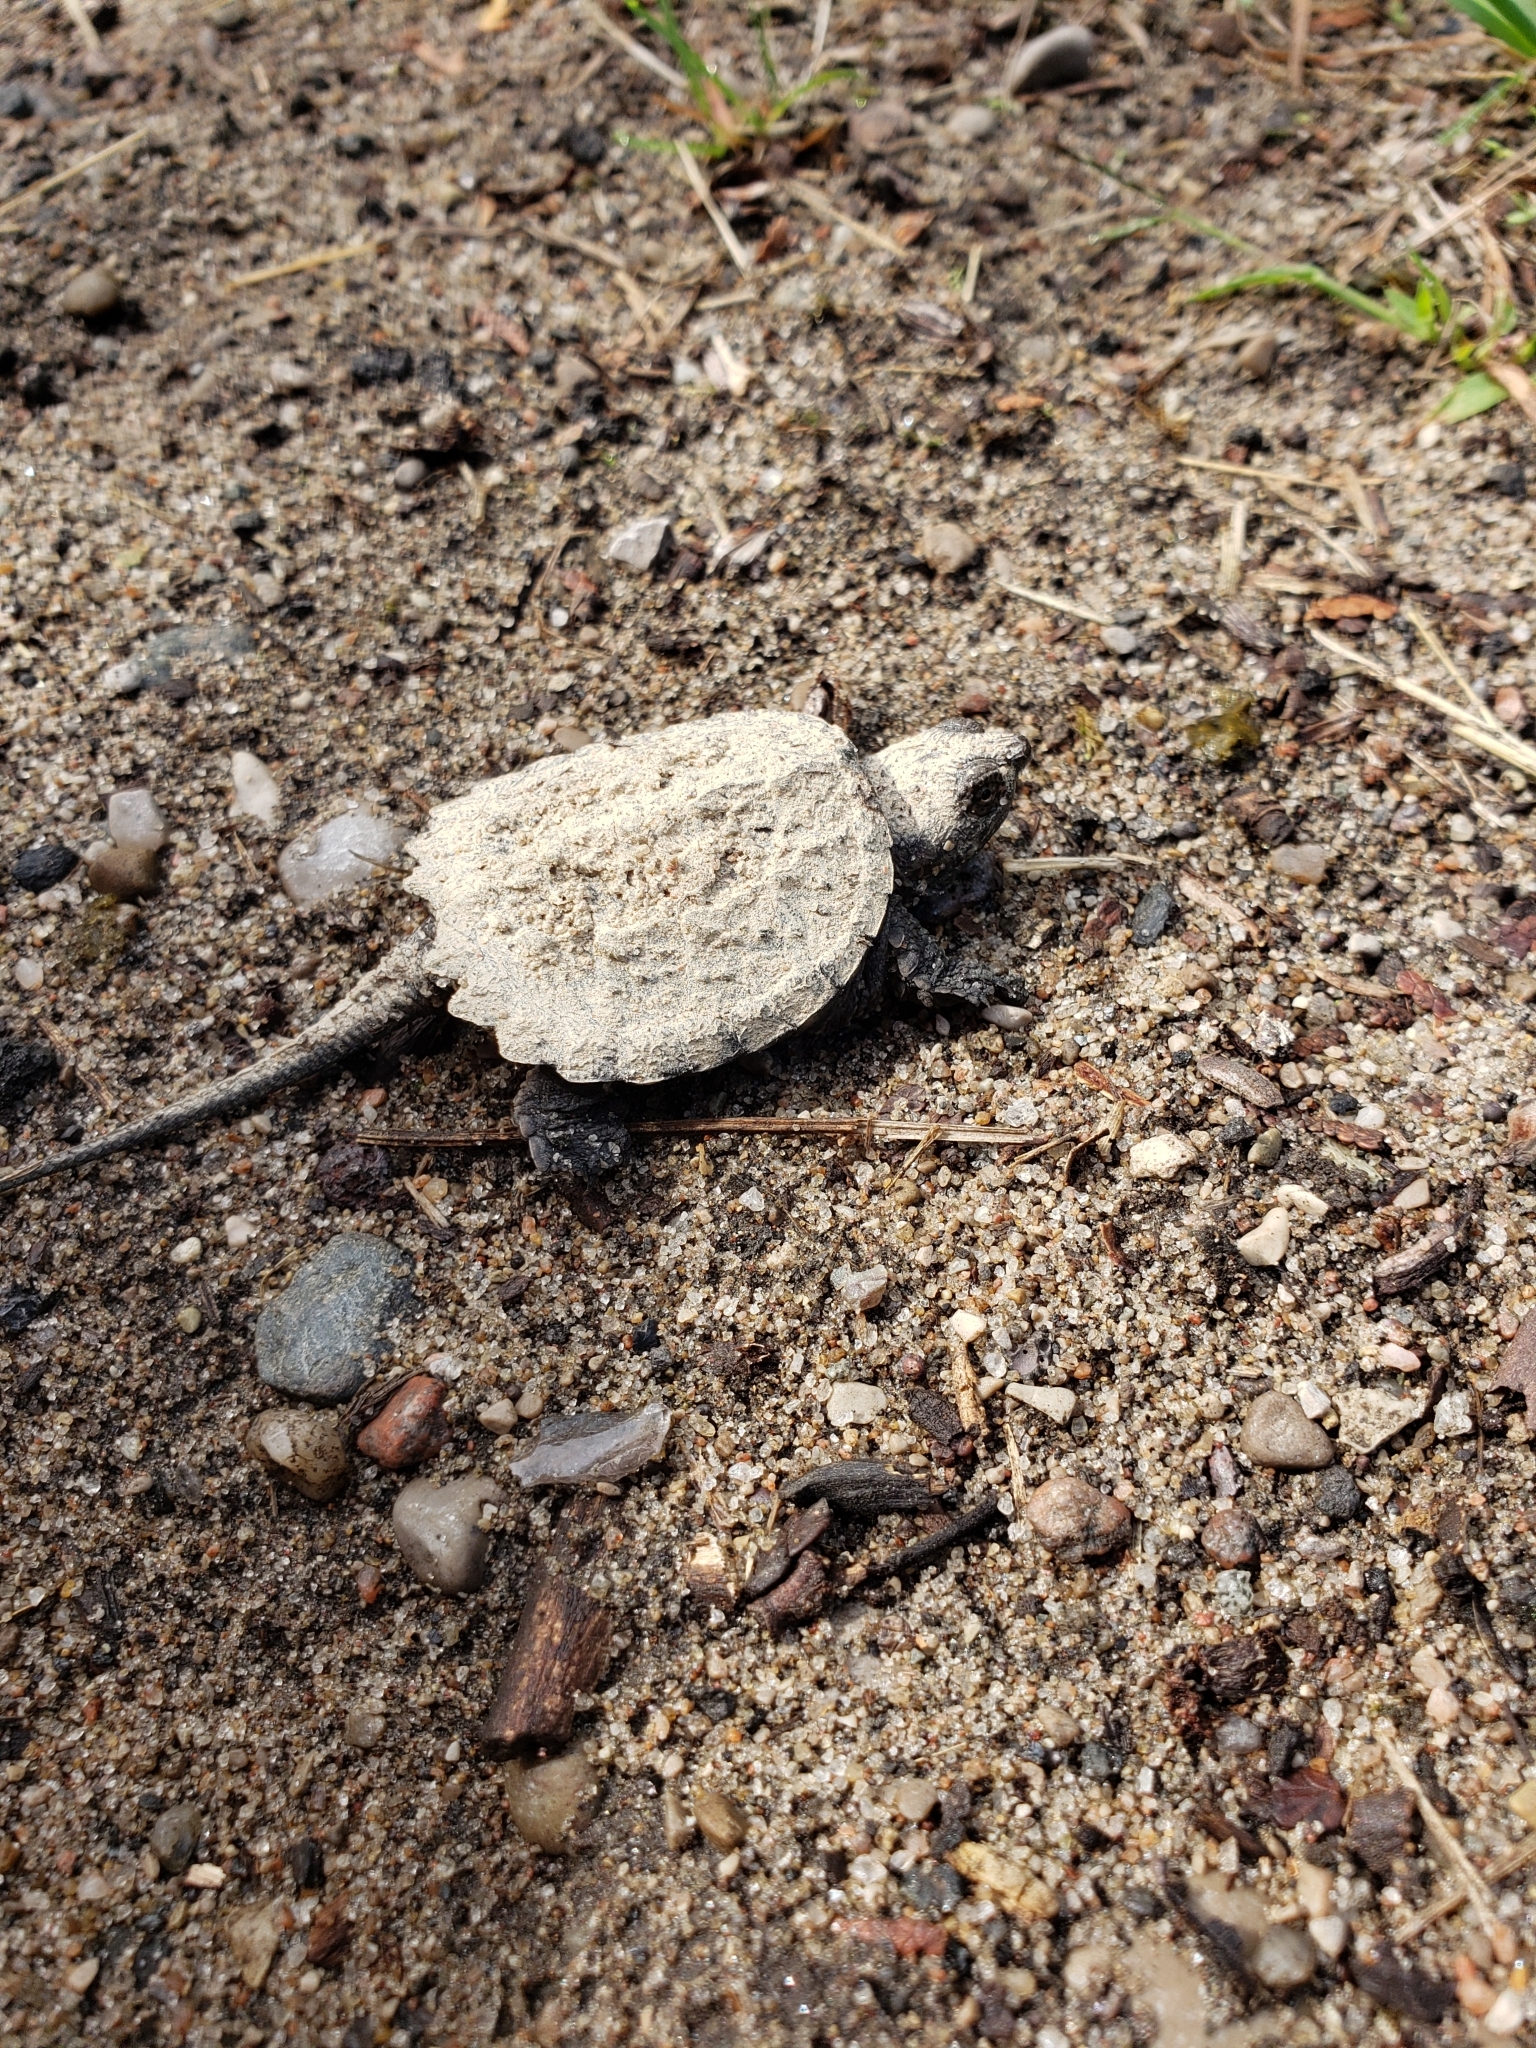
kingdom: Animalia
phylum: Chordata
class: Testudines
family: Chelydridae
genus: Chelydra
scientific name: Chelydra serpentina
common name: Common snapping turtle
